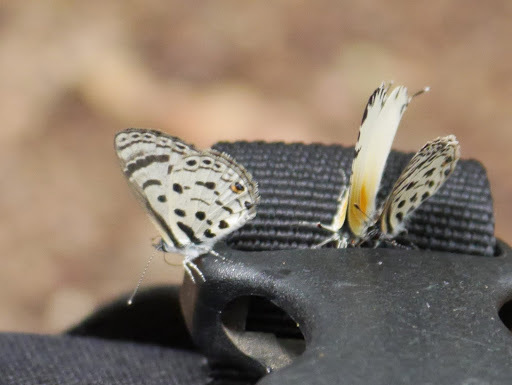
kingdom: Animalia
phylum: Arthropoda
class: Insecta
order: Lepidoptera
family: Lycaenidae
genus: Azanus
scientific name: Azanus mirza
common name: Mirza babul blue
